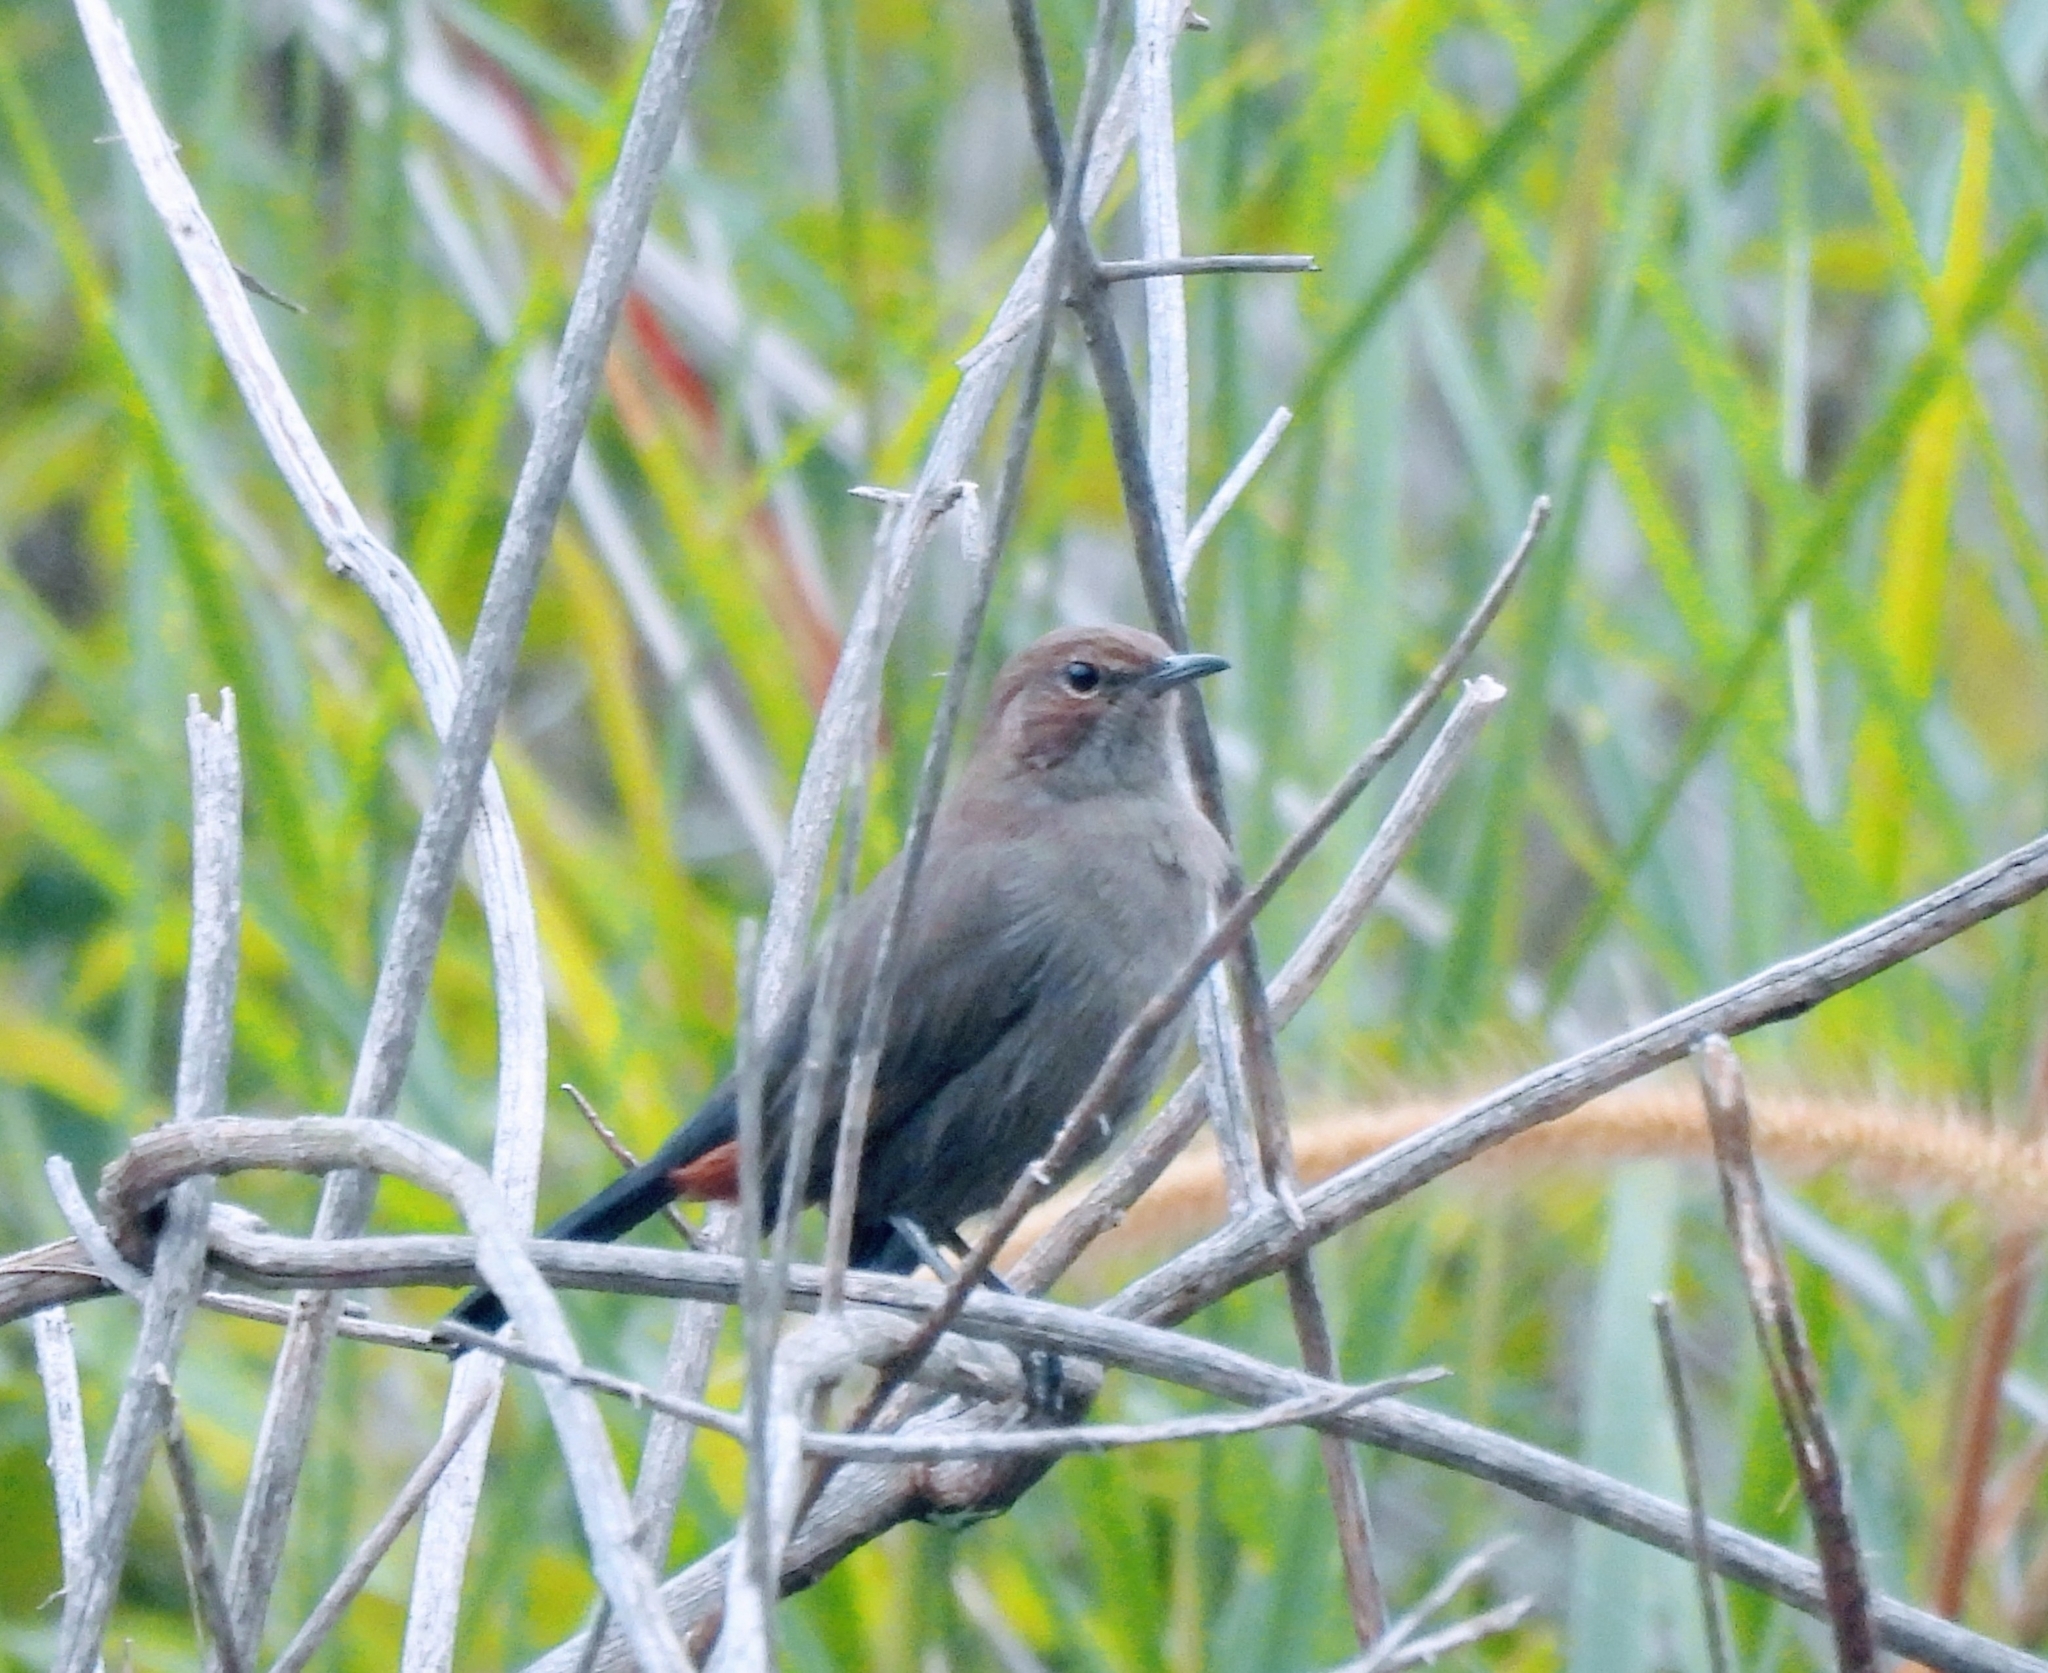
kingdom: Animalia
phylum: Chordata
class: Aves
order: Passeriformes
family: Muscicapidae
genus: Saxicoloides
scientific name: Saxicoloides fulicatus
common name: Indian robin
